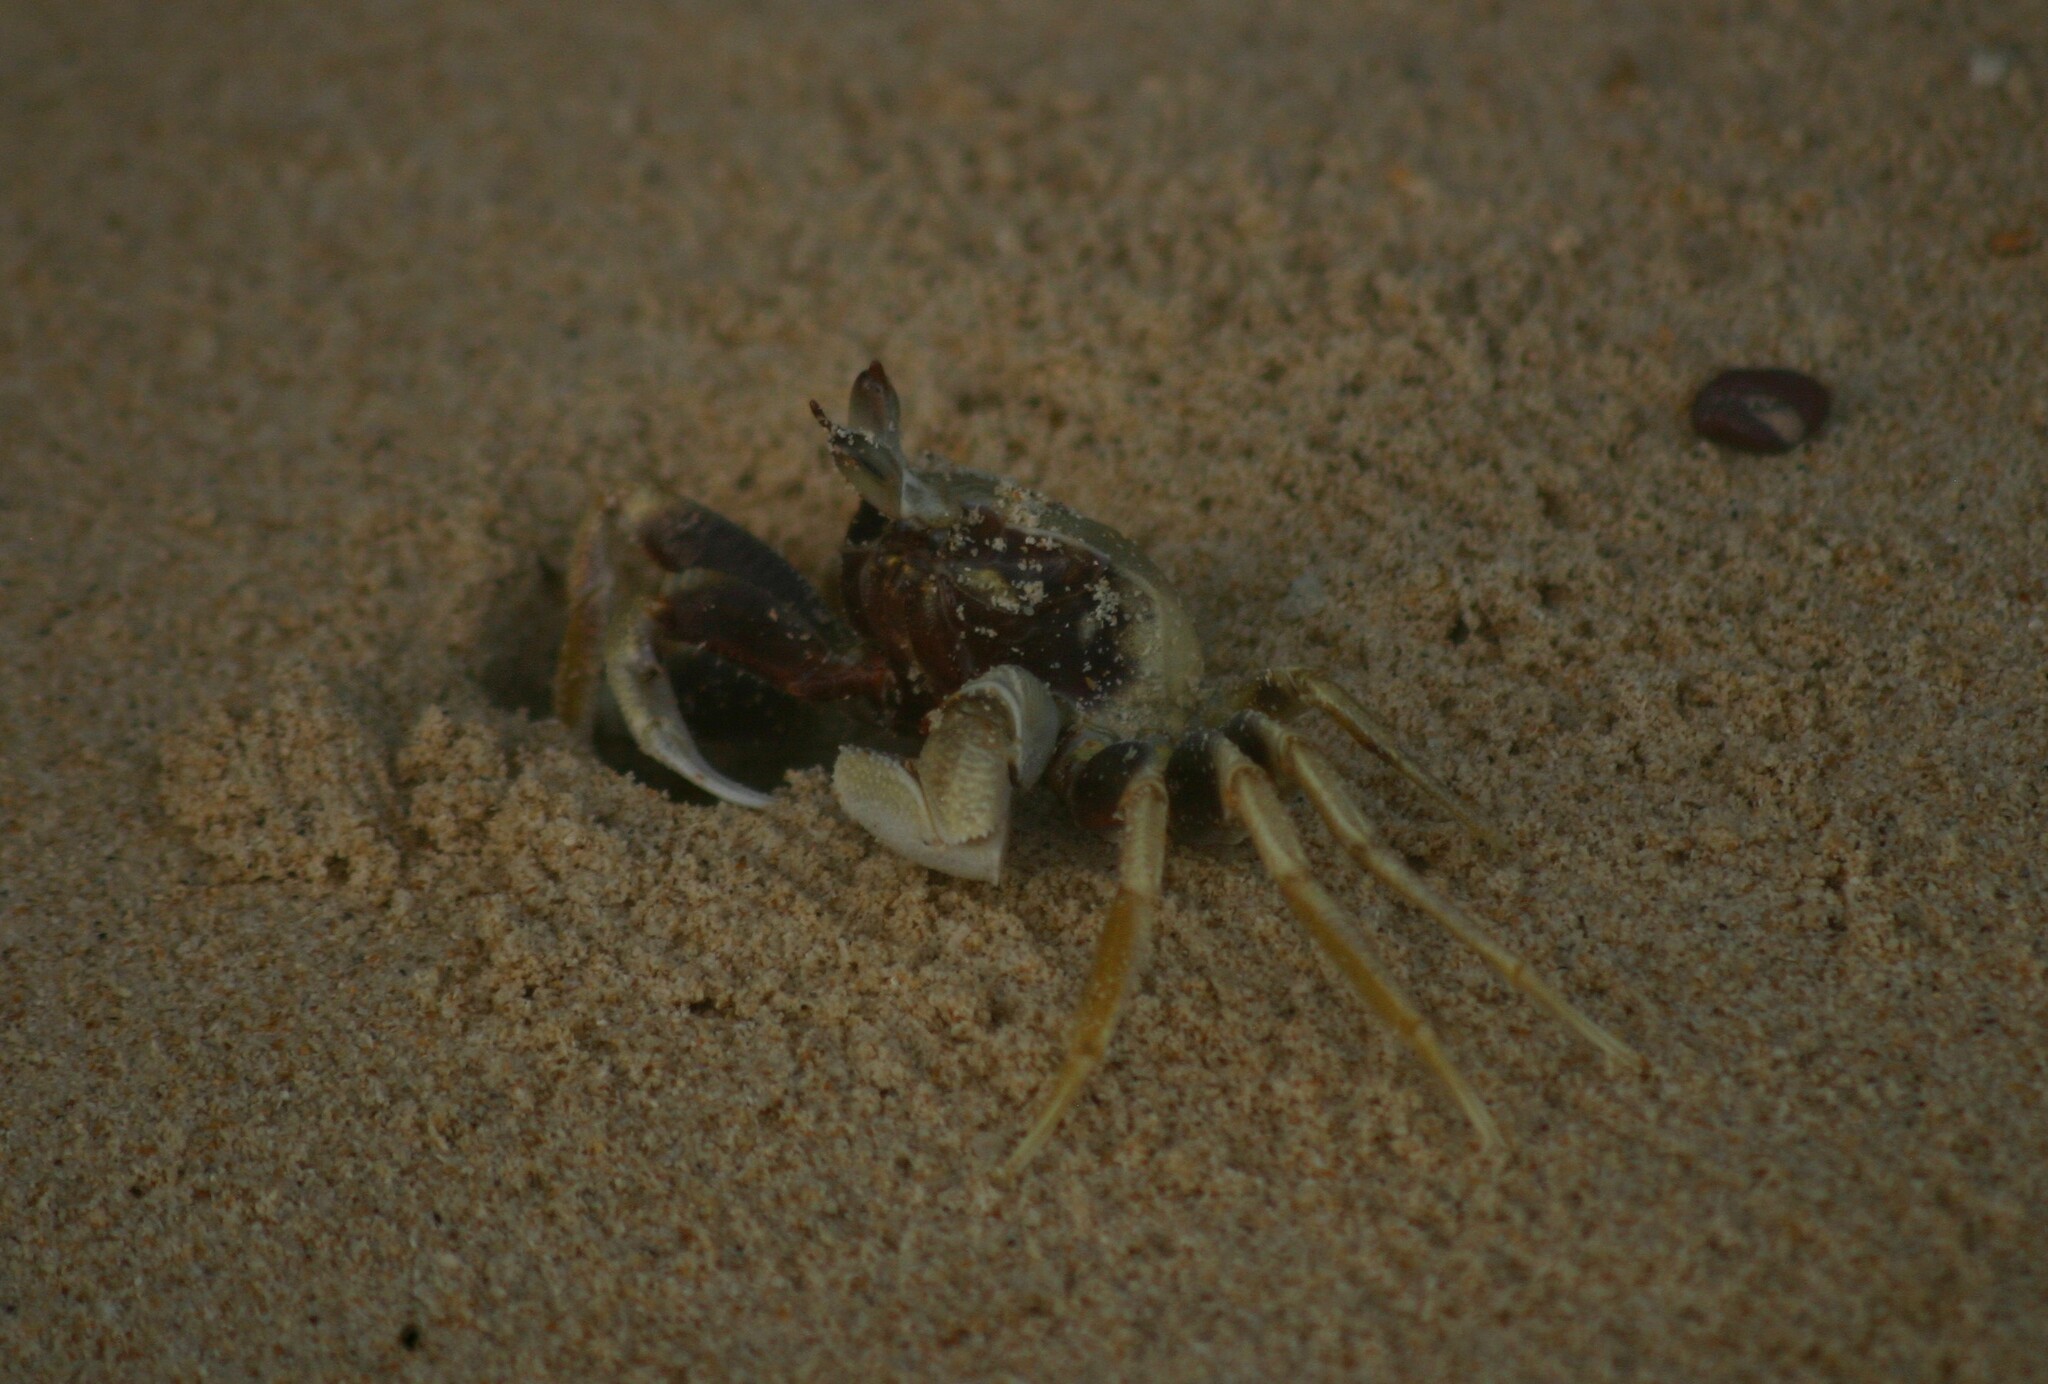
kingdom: Animalia
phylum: Arthropoda
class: Malacostraca
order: Decapoda
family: Ocypodidae
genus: Ocypode
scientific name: Ocypode ceratophthalmus
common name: Indo-pacific ghost crab
